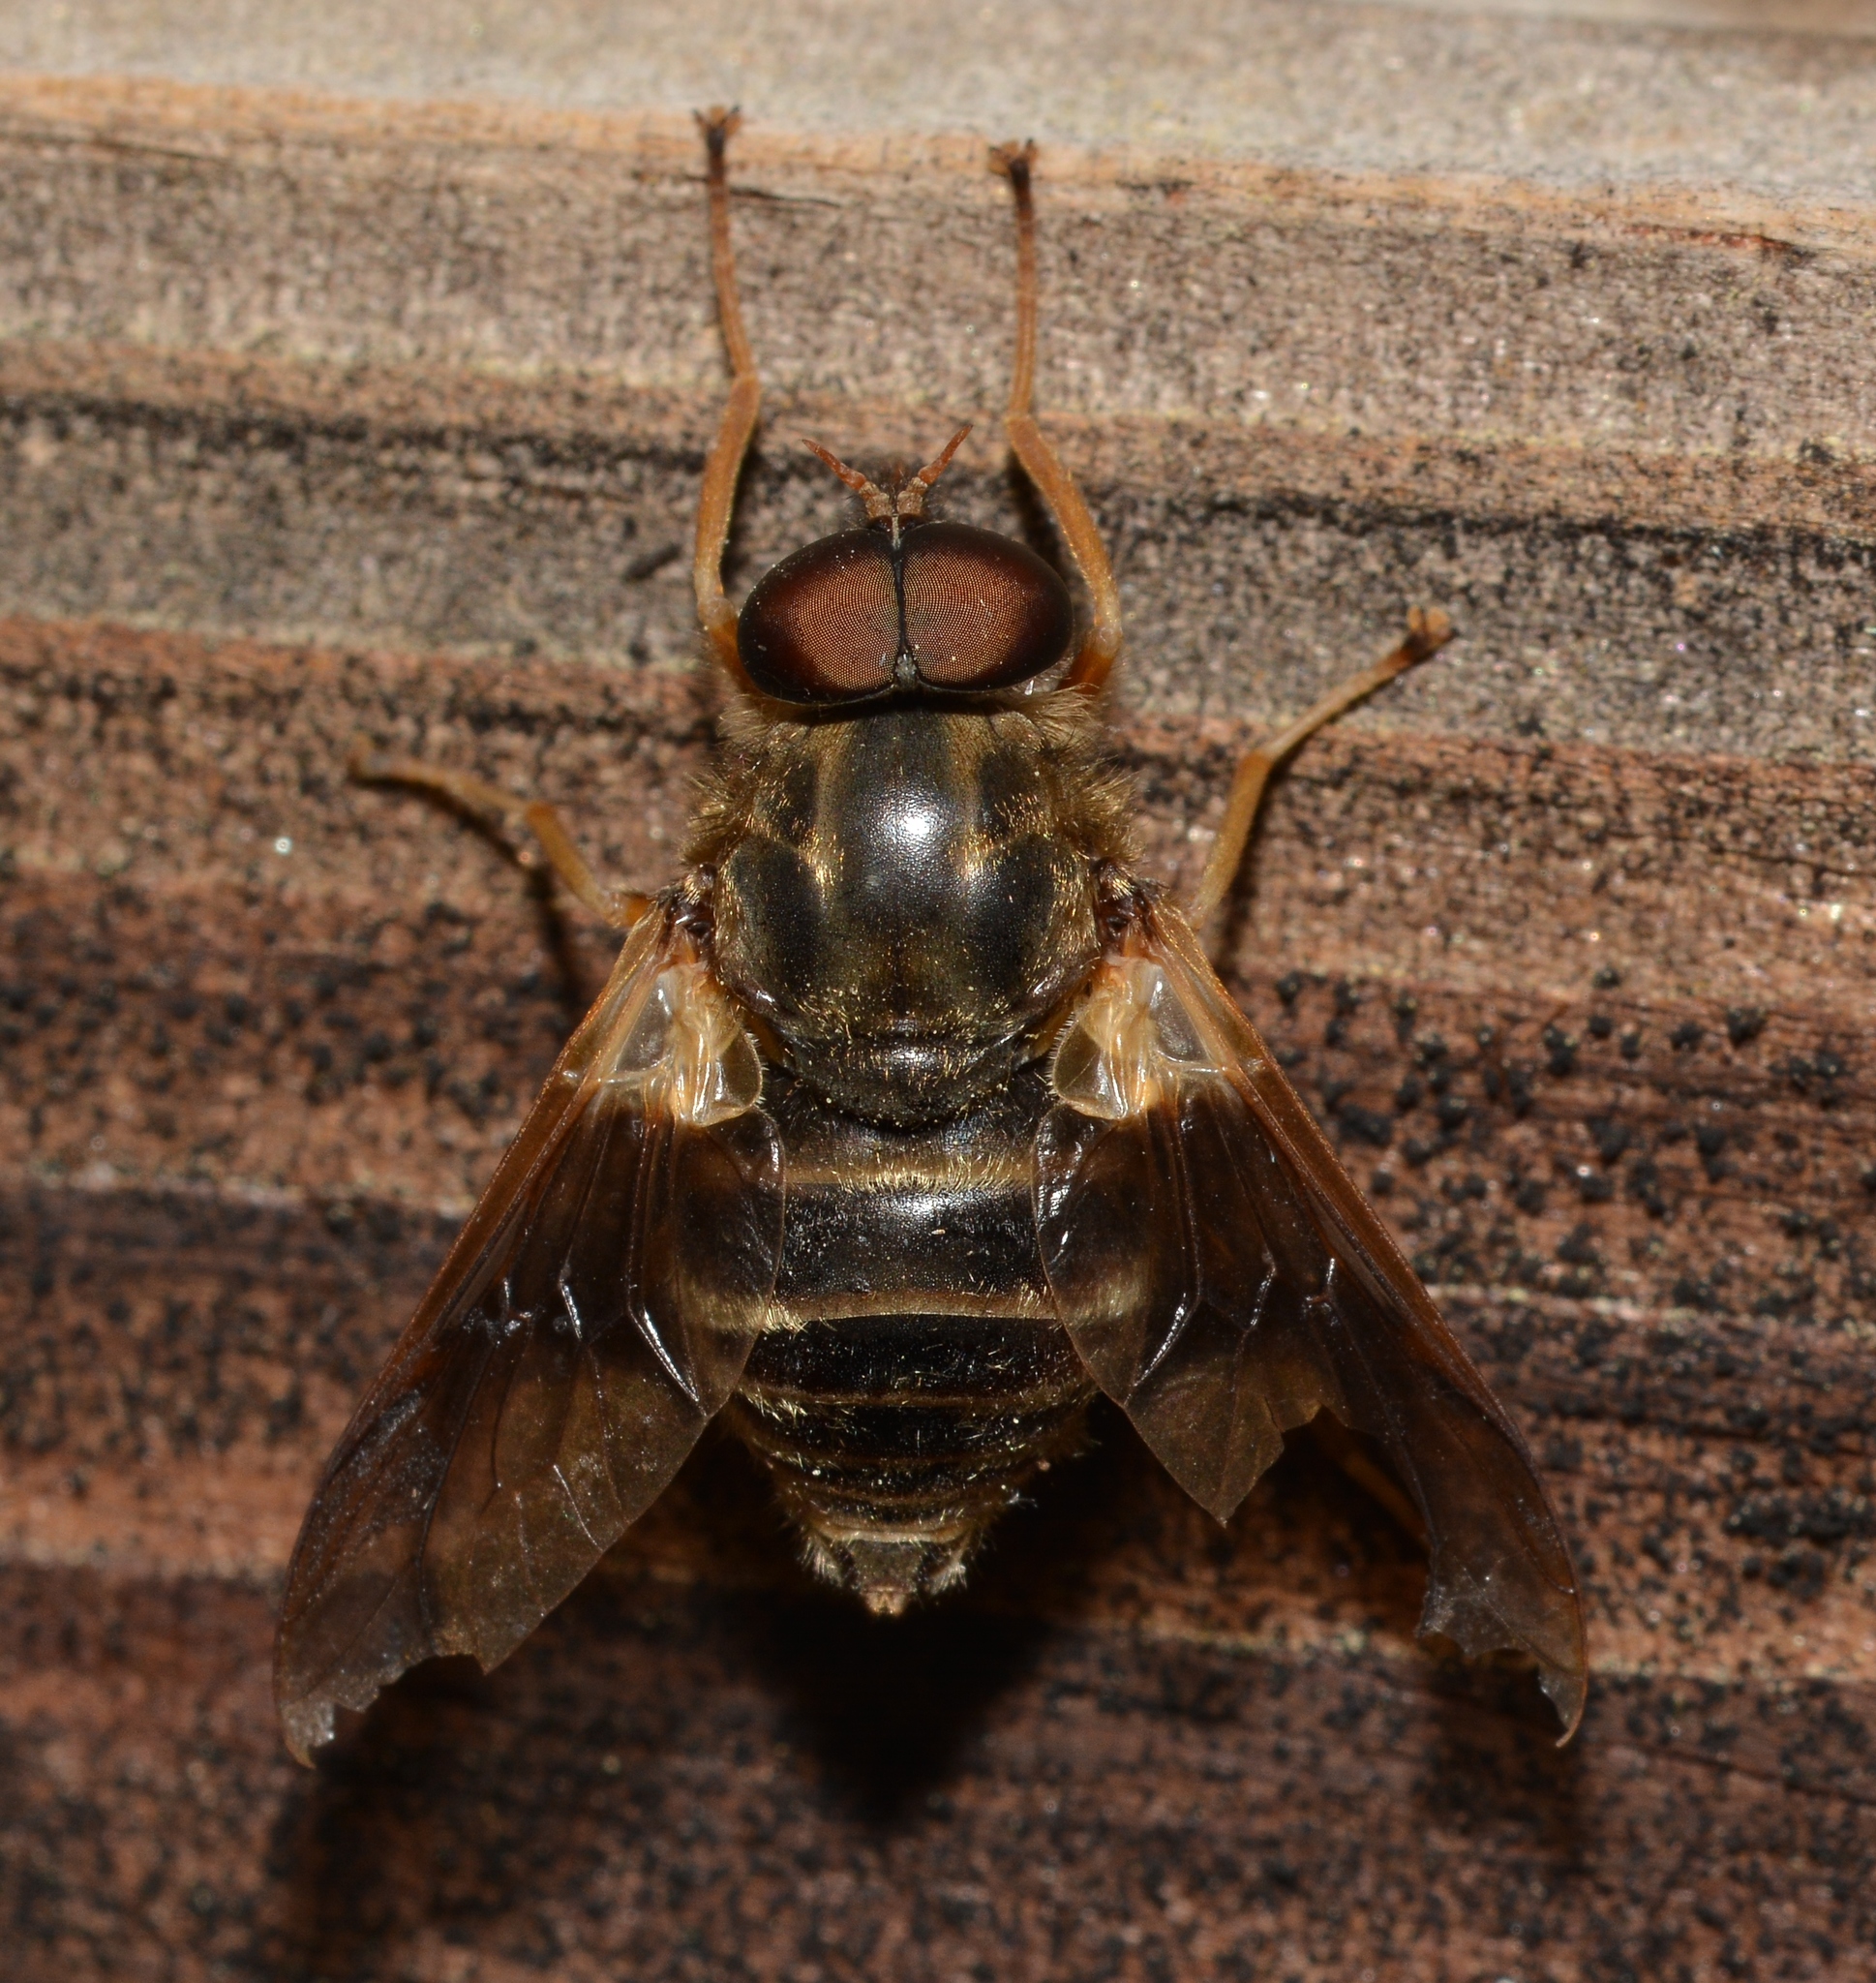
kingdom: Animalia
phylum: Arthropoda
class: Insecta
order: Diptera
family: Tabanidae
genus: Goniops
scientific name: Goniops chrysocoma
